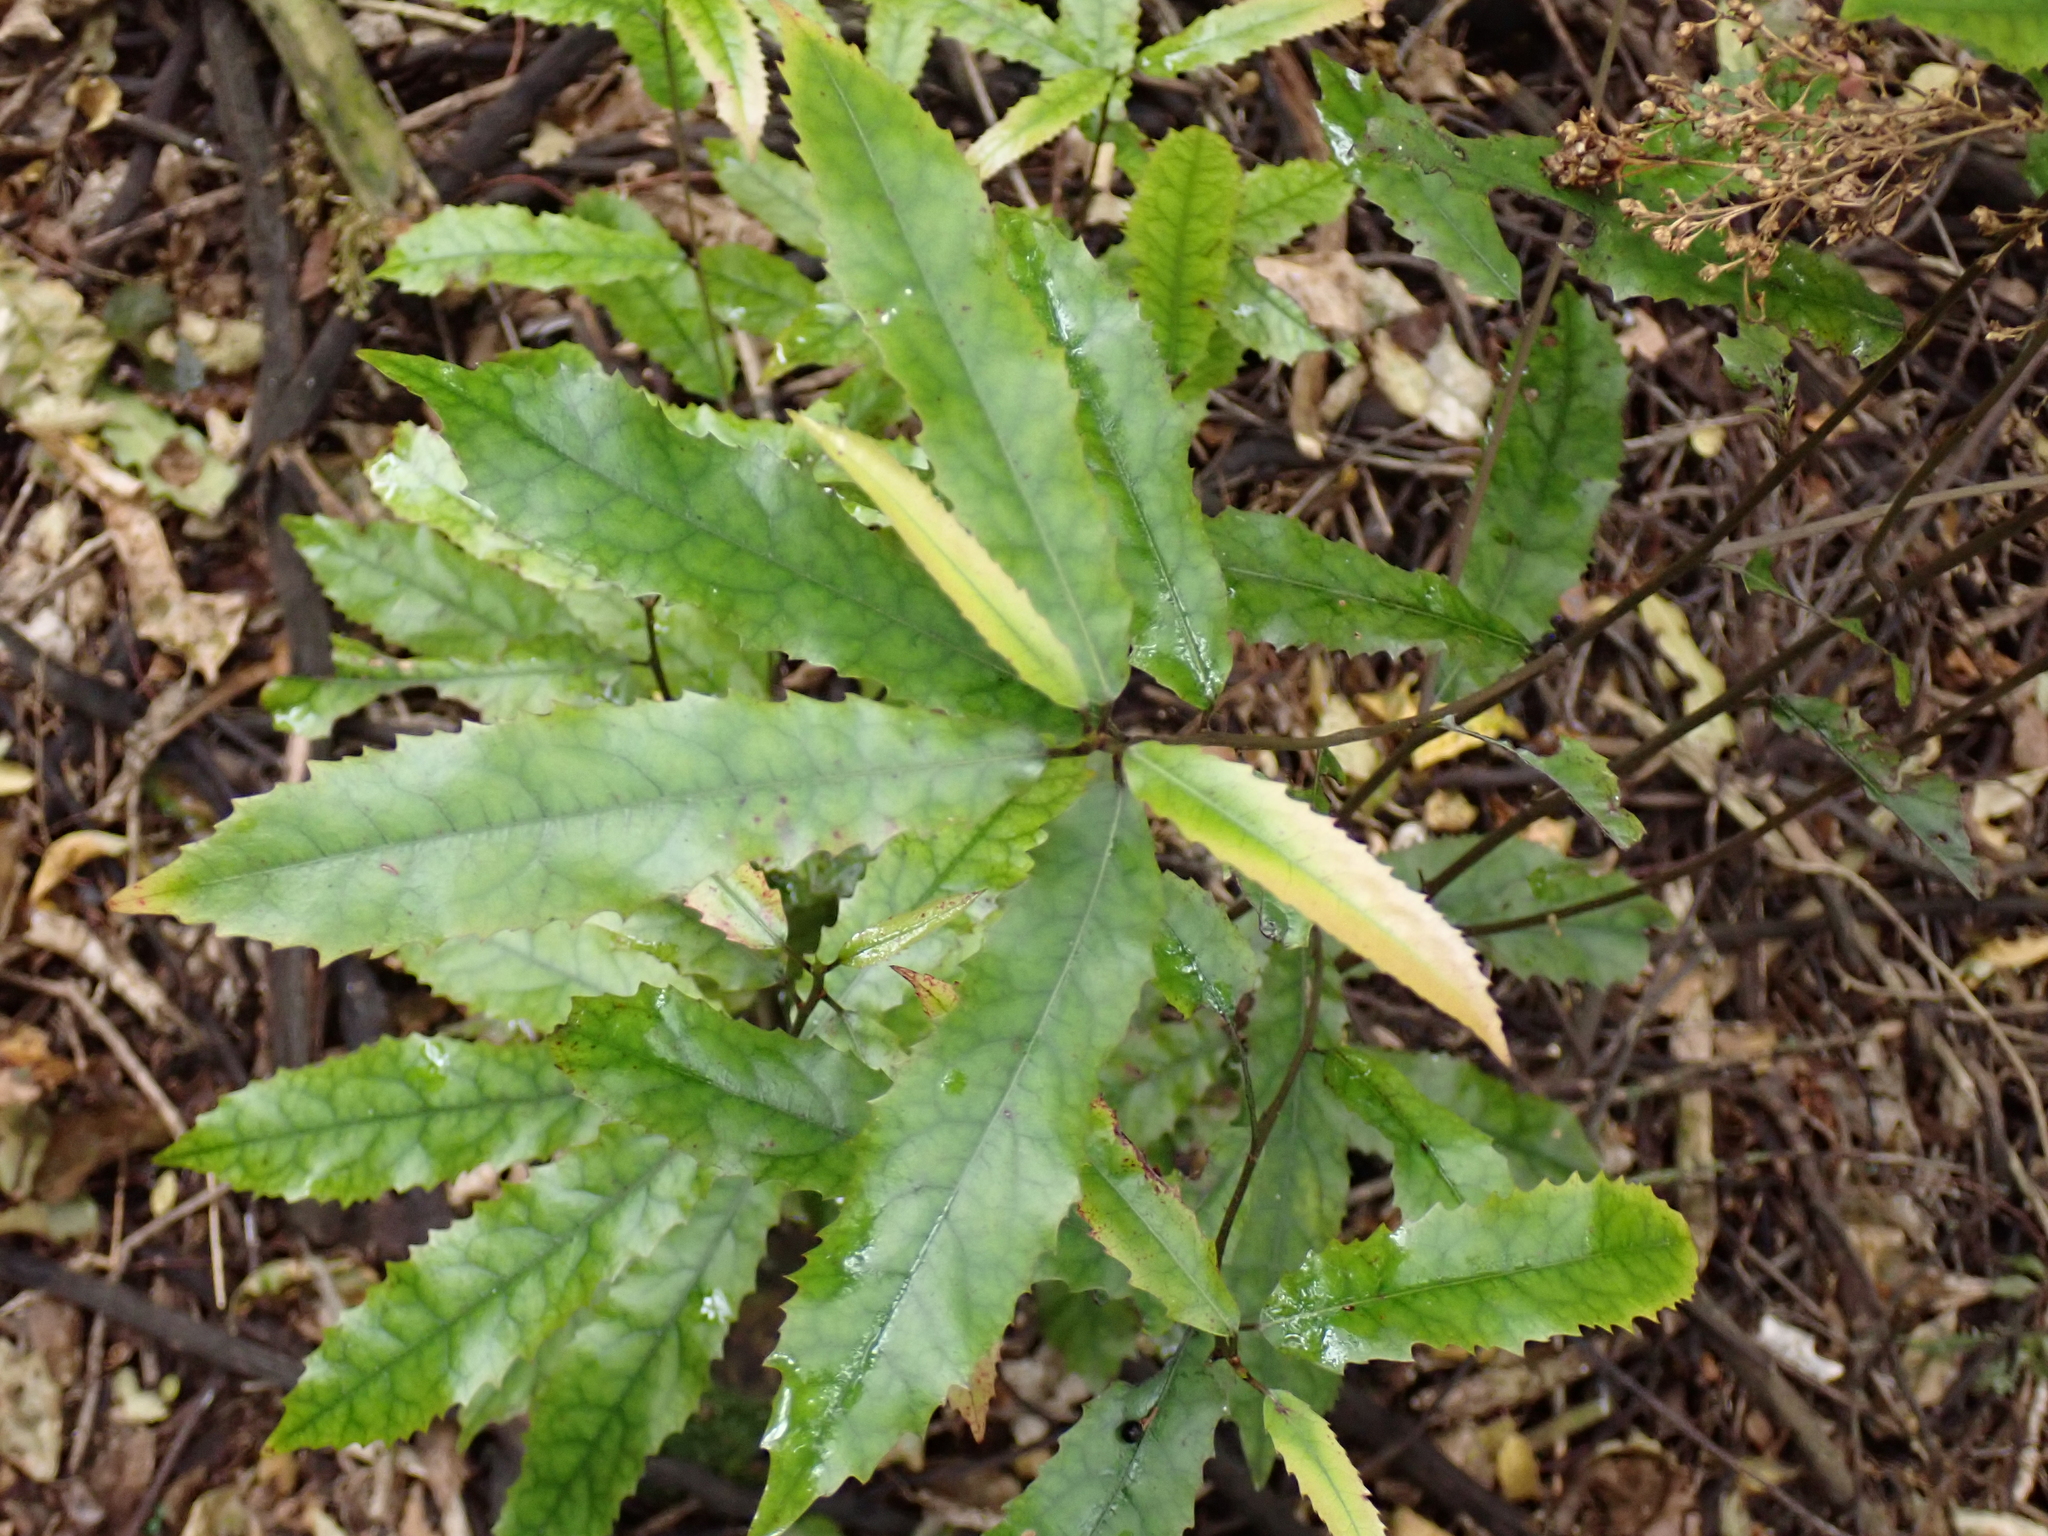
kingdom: Plantae
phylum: Tracheophyta
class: Magnoliopsida
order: Oxalidales
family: Elaeocarpaceae
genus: Elaeocarpus
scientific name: Elaeocarpus dentatus
